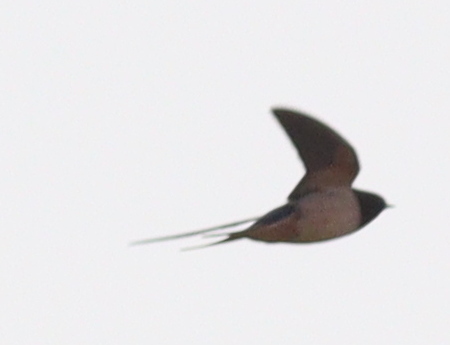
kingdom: Animalia
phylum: Chordata
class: Aves
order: Passeriformes
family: Hirundinidae
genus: Hirundo
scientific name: Hirundo rustica
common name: Barn swallow
